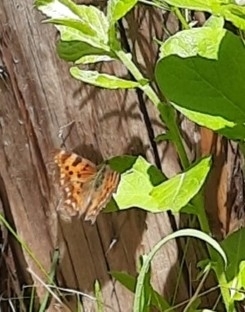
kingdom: Animalia
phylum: Arthropoda
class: Insecta
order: Lepidoptera
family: Nymphalidae
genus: Araschnia
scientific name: Araschnia levana
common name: Map butterfly
